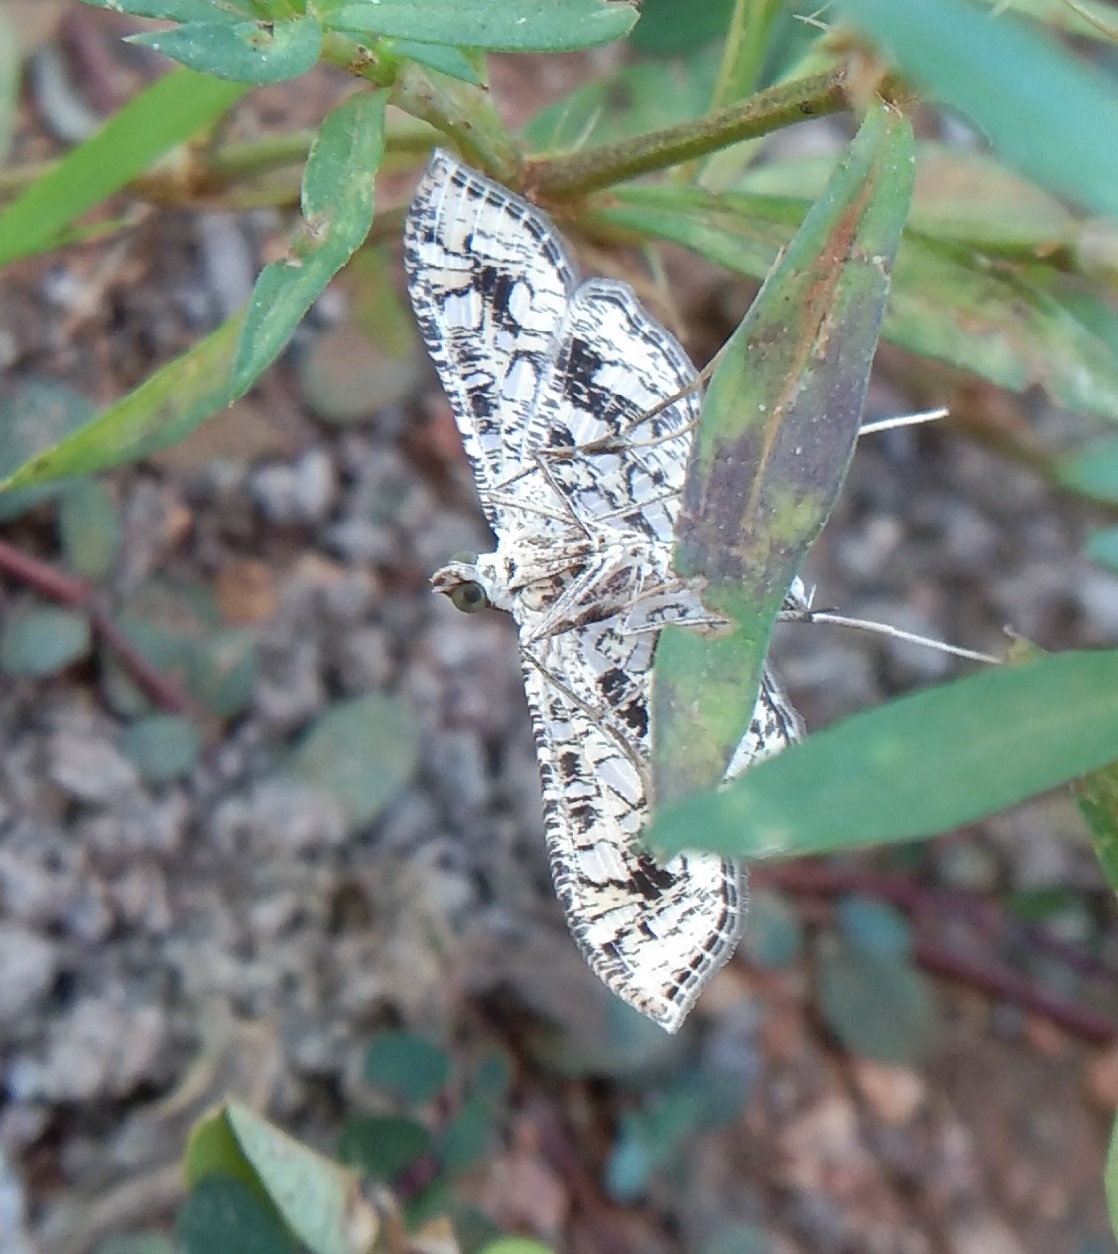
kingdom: Animalia
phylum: Arthropoda
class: Insecta
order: Lepidoptera
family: Crambidae
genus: Nausinoe
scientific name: Nausinoe geometralis
